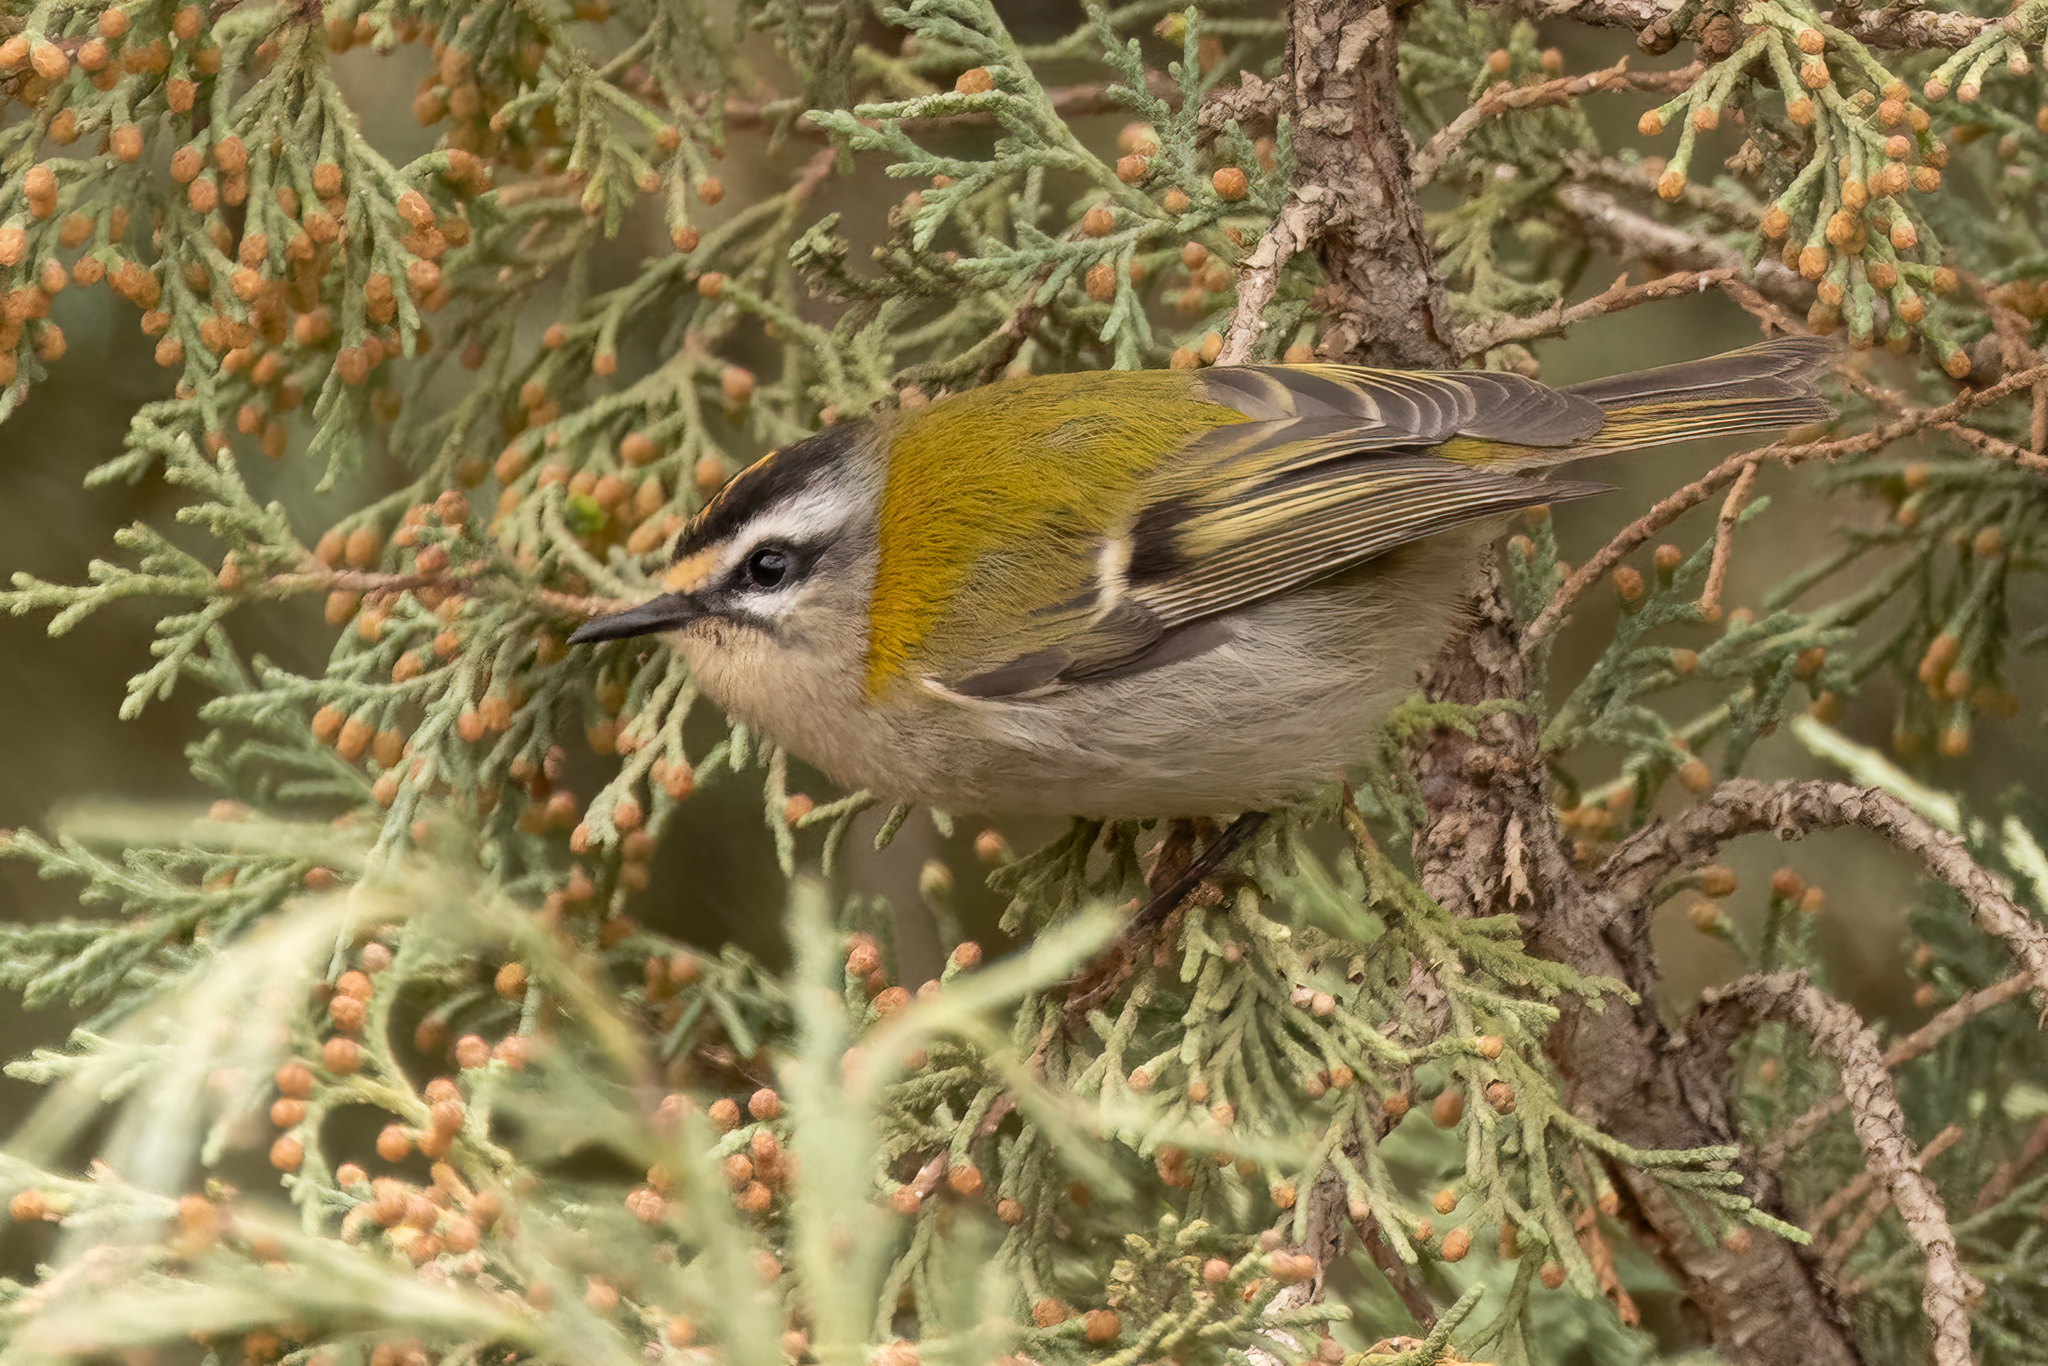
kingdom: Animalia
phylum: Chordata
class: Aves
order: Passeriformes
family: Regulidae
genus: Regulus
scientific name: Regulus ignicapilla
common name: Firecrest
